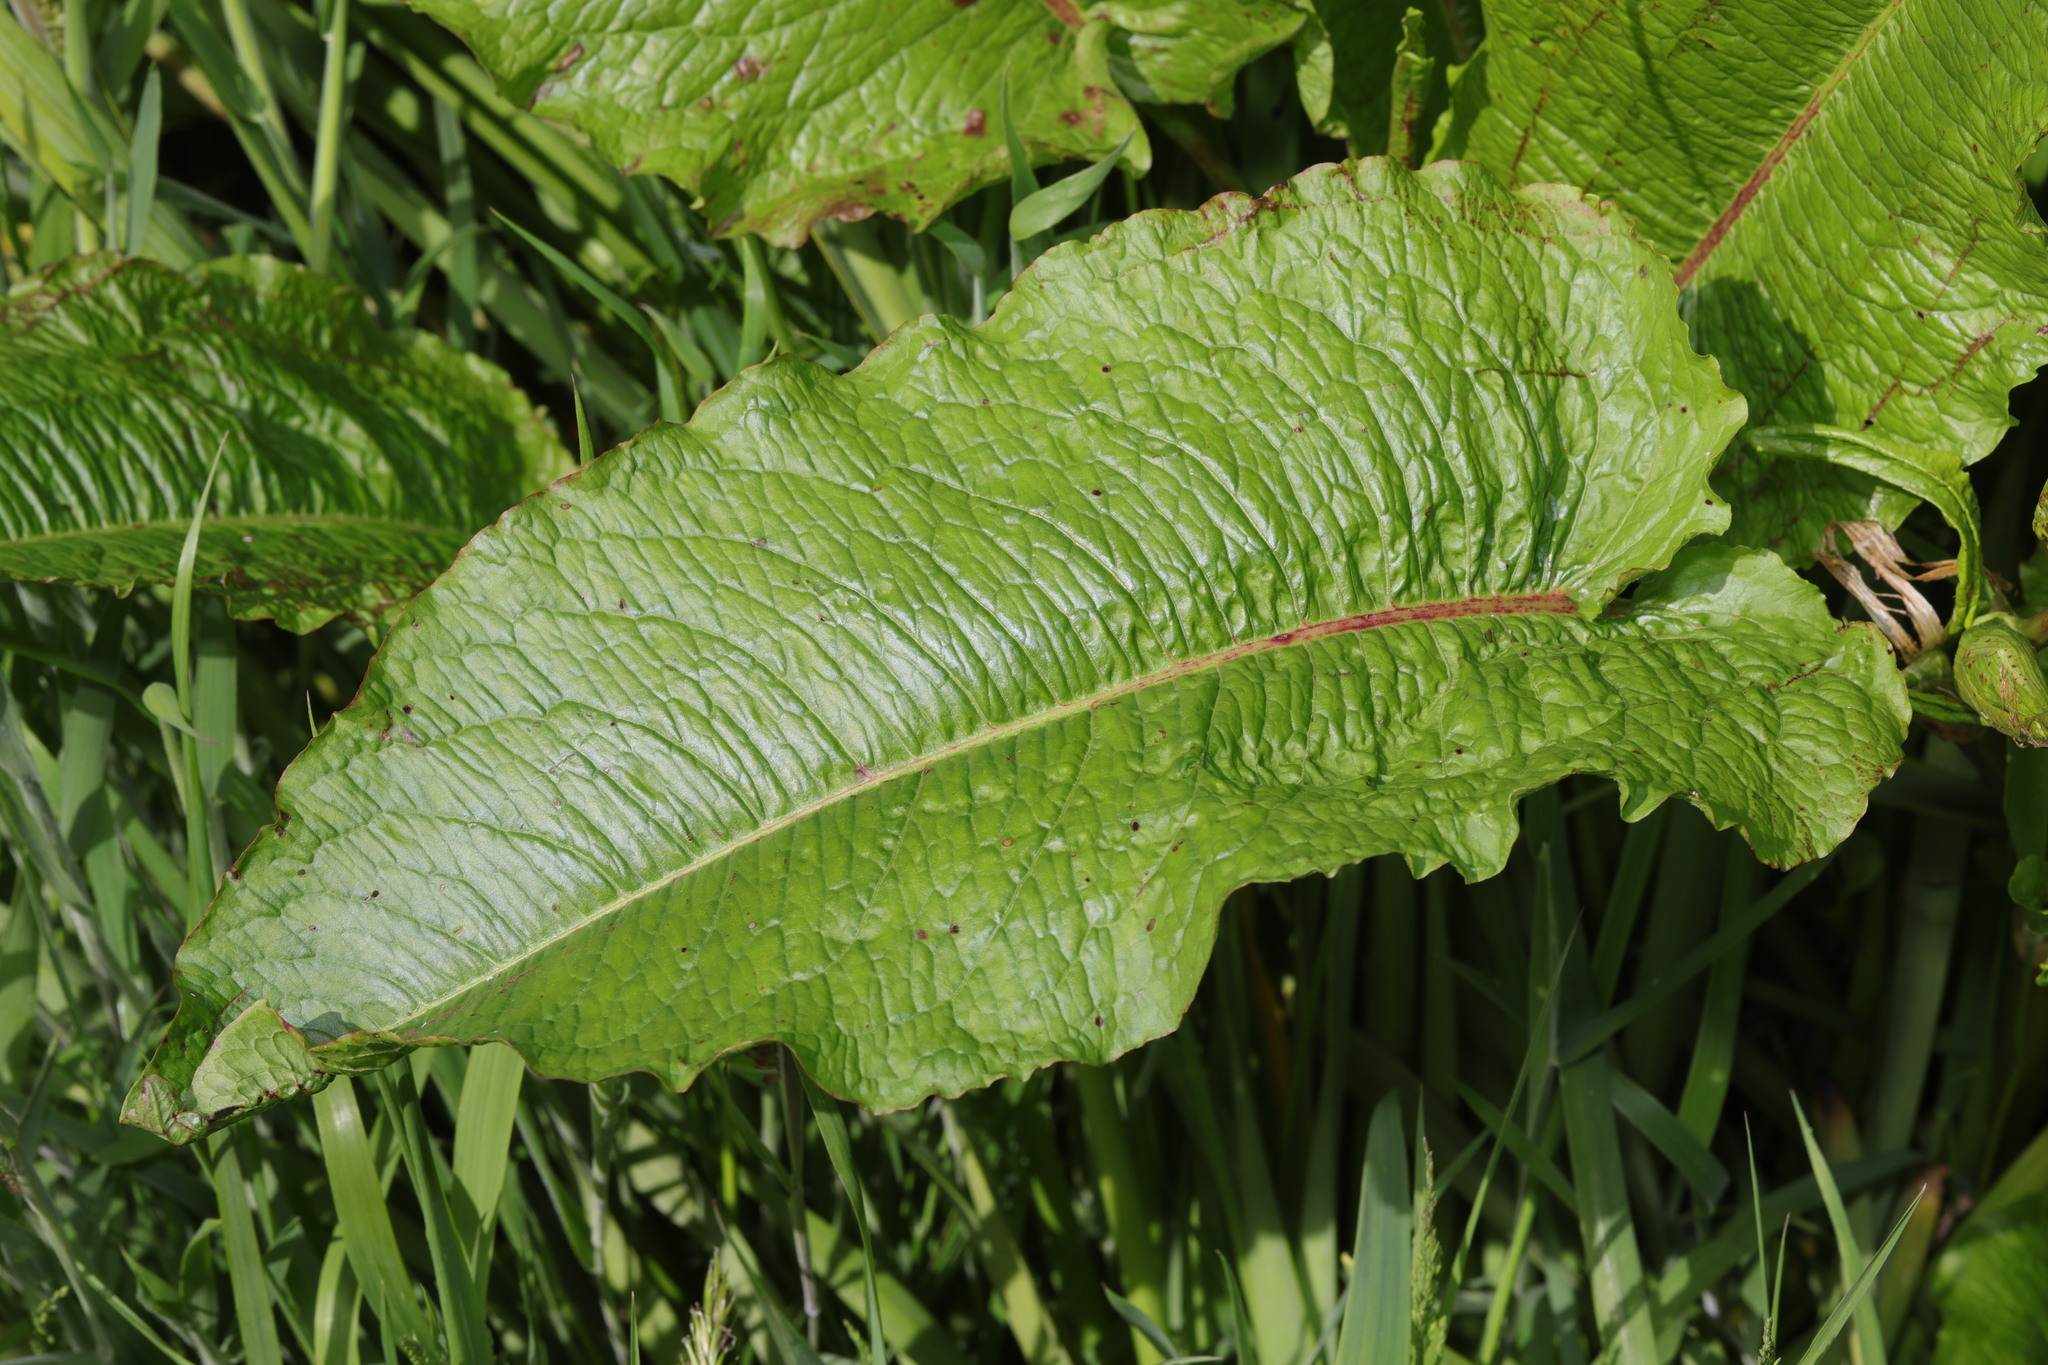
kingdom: Plantae
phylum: Tracheophyta
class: Magnoliopsida
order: Caryophyllales
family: Polygonaceae
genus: Rumex
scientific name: Rumex obtusifolius
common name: Bitter dock
